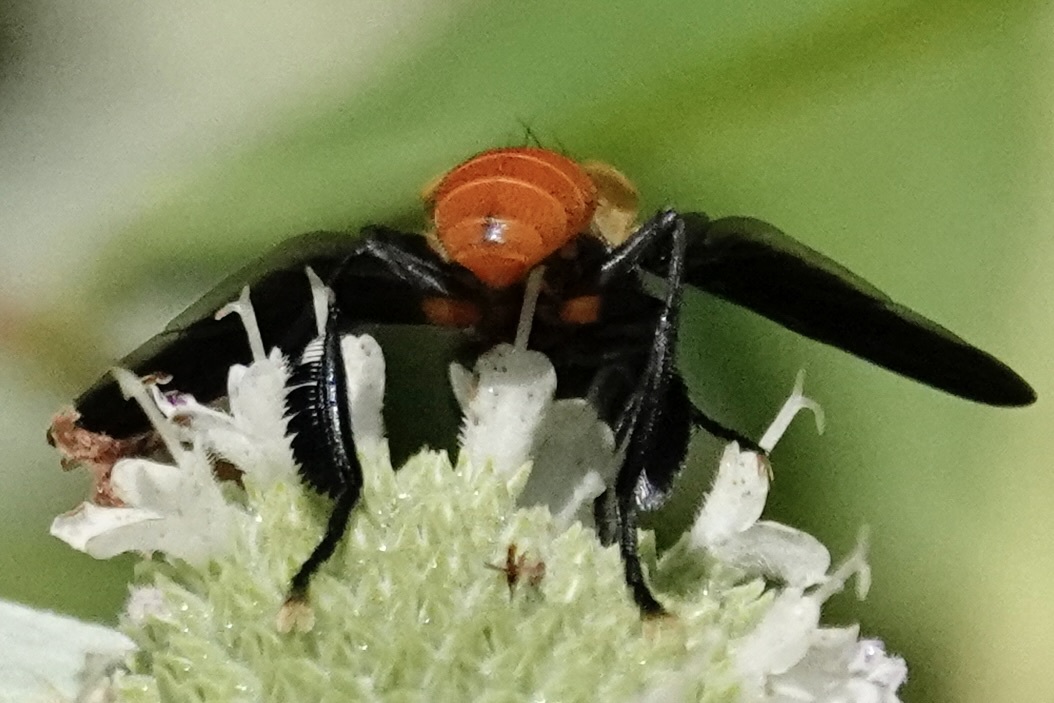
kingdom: Animalia
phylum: Arthropoda
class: Insecta
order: Diptera
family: Tachinidae
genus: Trichopoda
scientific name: Trichopoda pennipes
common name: Tachinid fly
